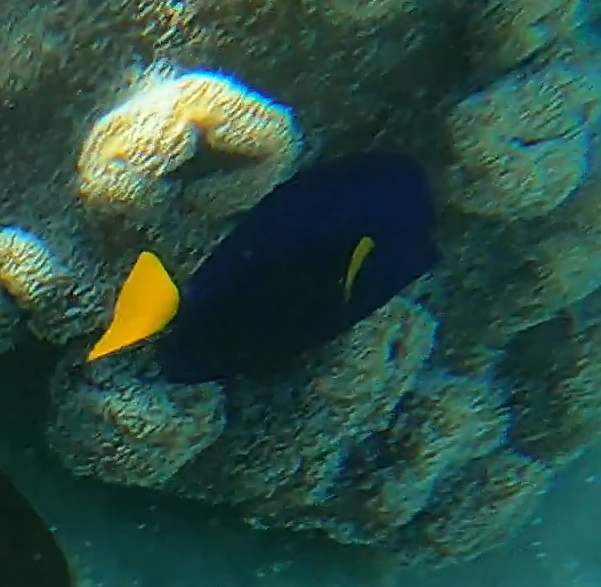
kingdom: Animalia
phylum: Chordata
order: Perciformes
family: Acanthuridae
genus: Zebrasoma
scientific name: Zebrasoma xanthurum
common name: Purple tang
